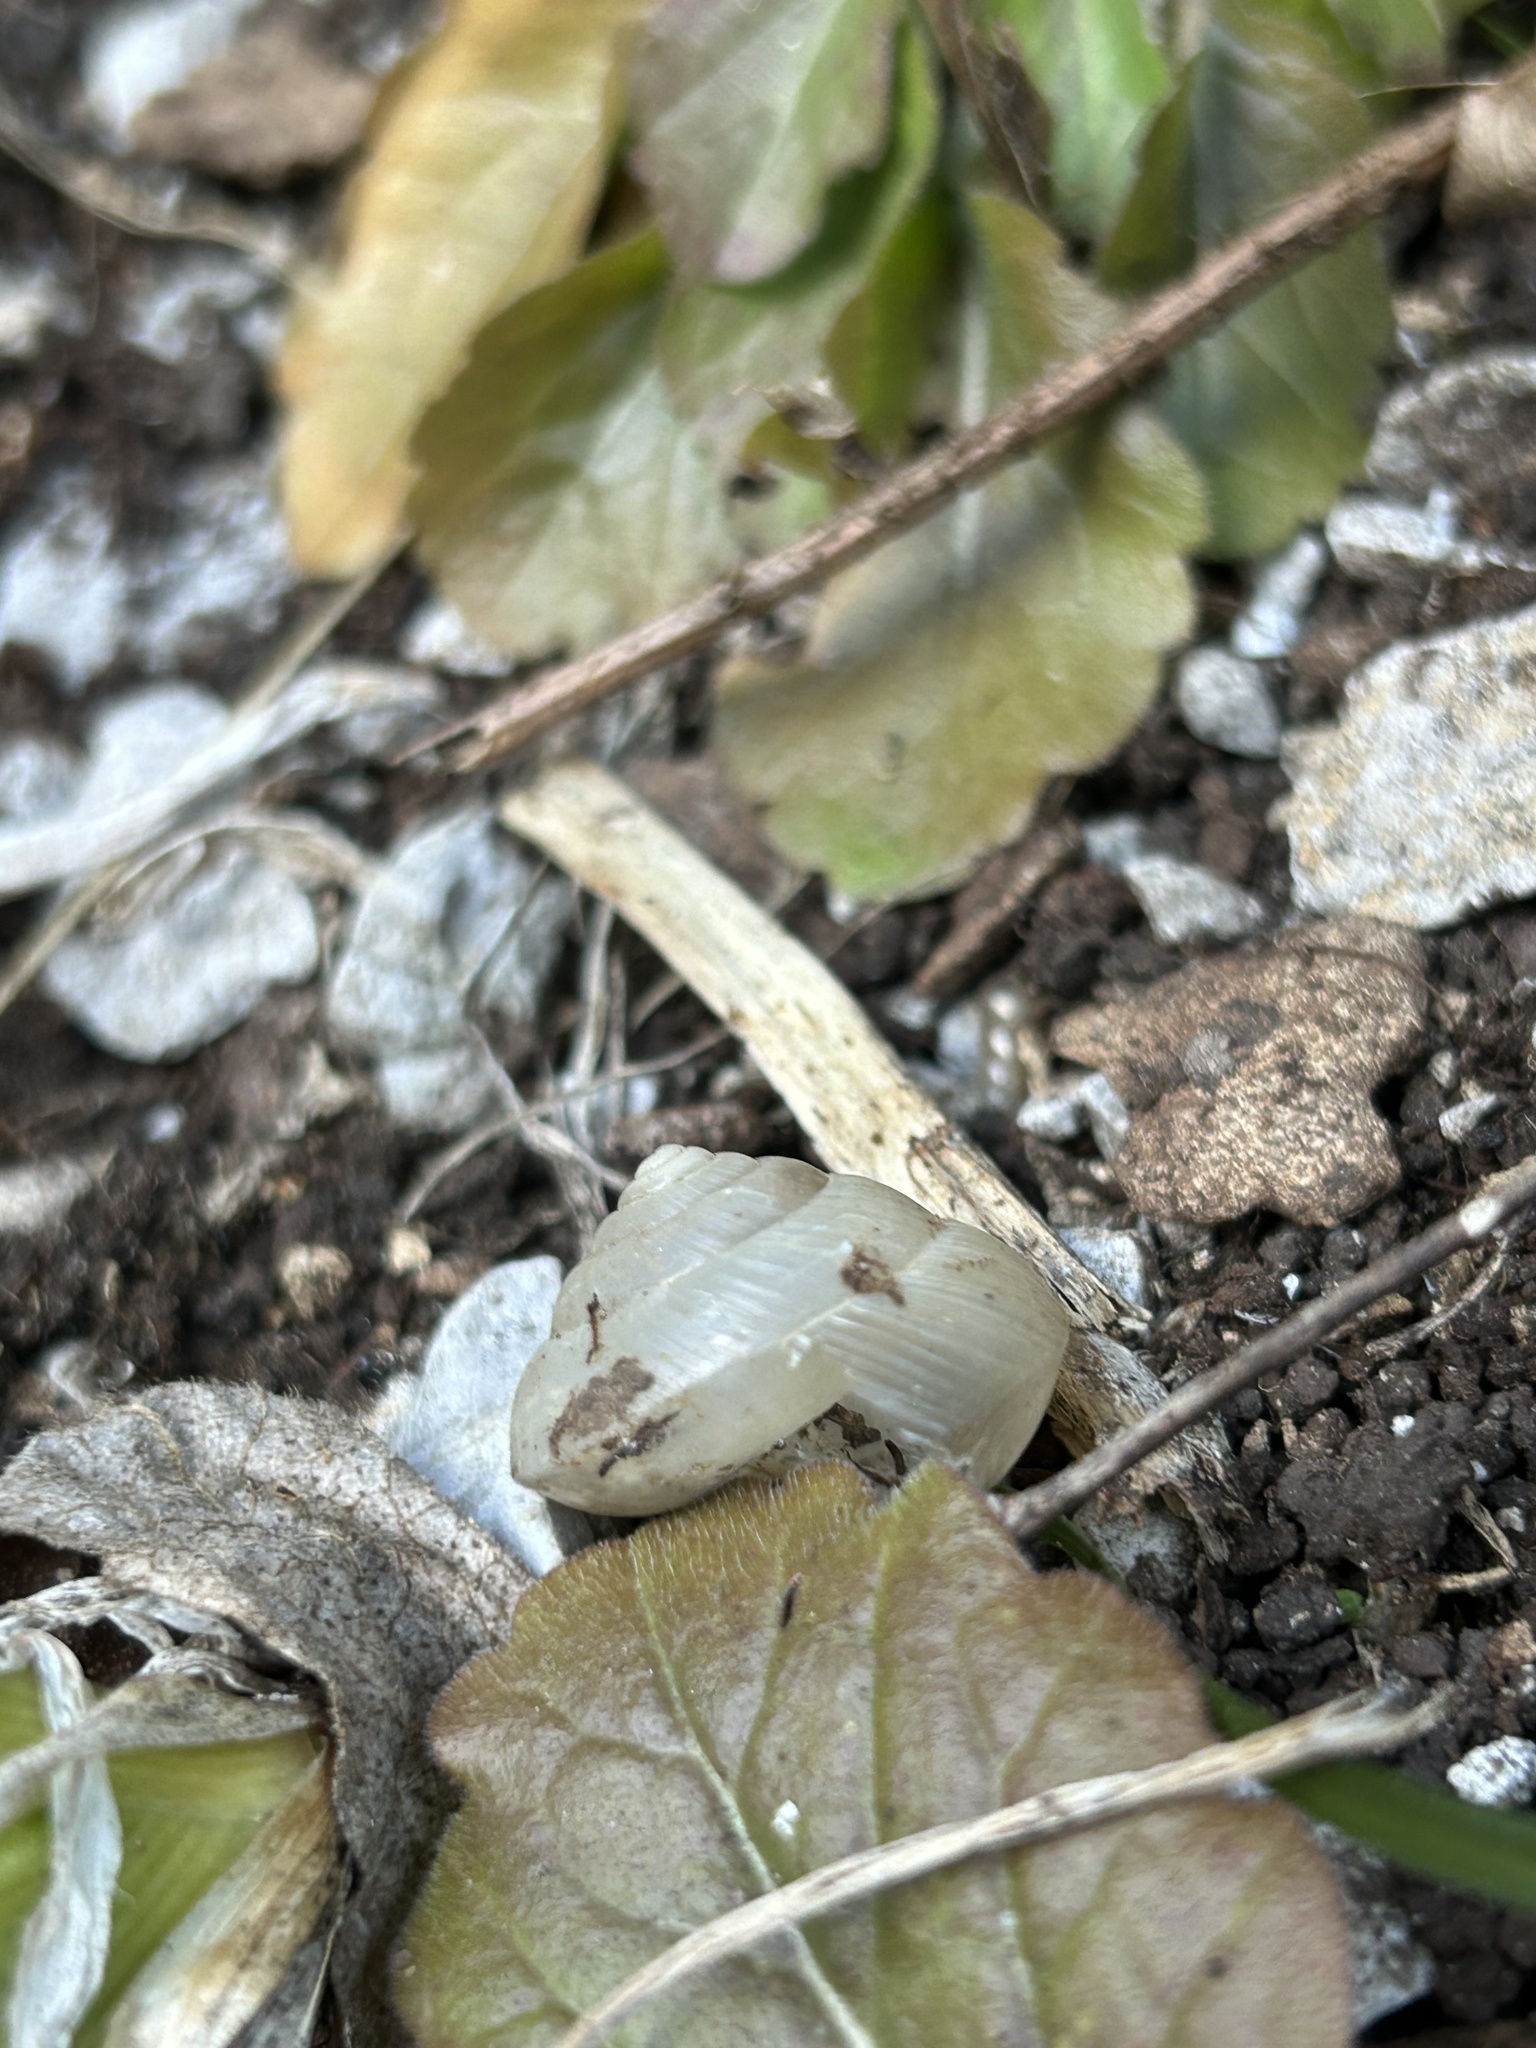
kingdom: Animalia
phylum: Mollusca
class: Gastropoda
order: Stylommatophora
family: Camaenidae
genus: Satsuma
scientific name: Satsuma japonica
